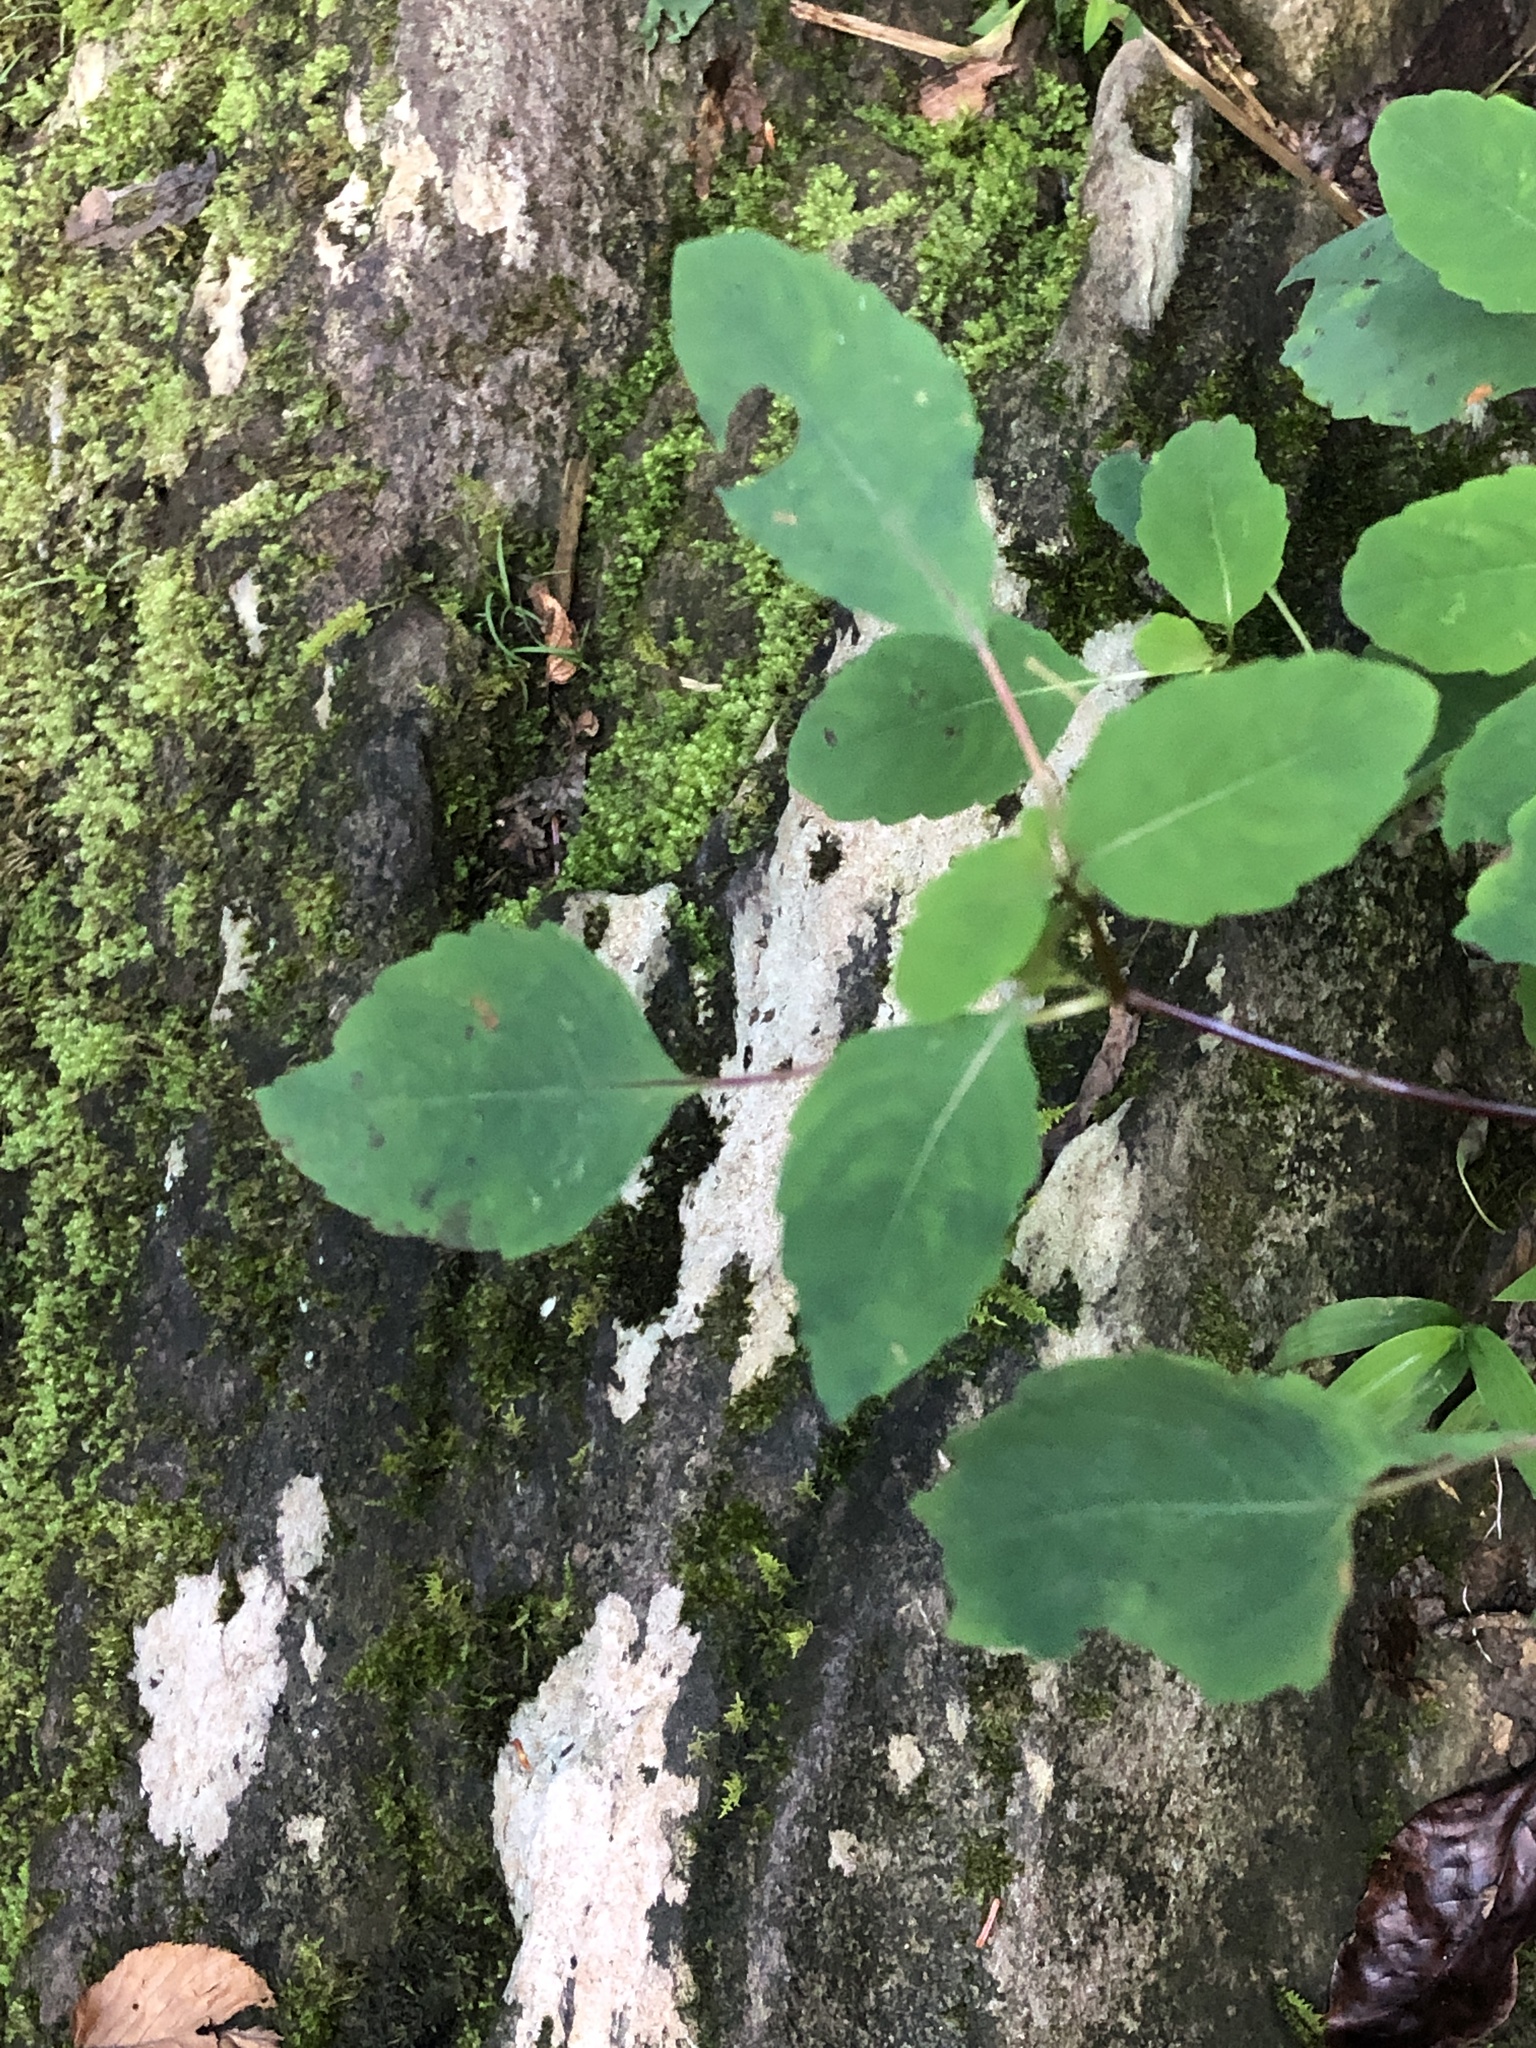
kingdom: Plantae
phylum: Tracheophyta
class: Magnoliopsida
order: Ericales
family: Balsaminaceae
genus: Impatiens
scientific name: Impatiens capensis
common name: Orange balsam
